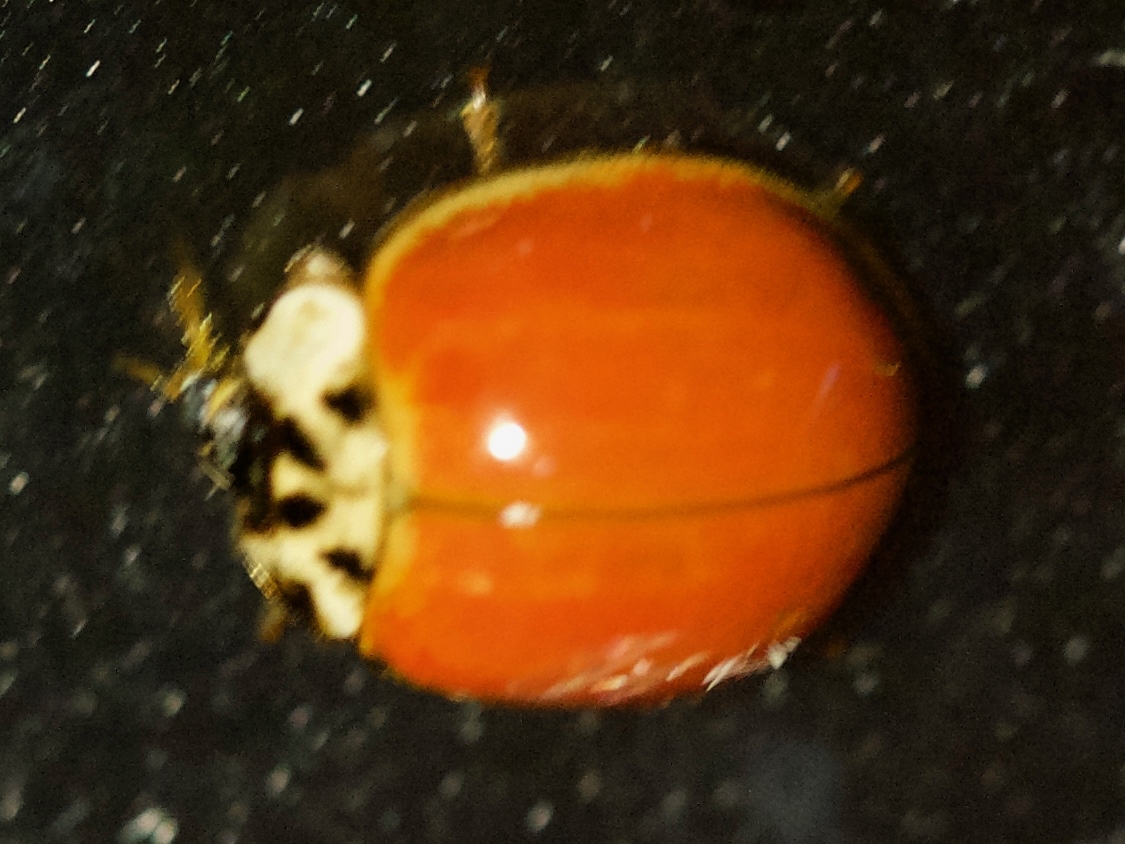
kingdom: Animalia
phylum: Arthropoda
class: Insecta
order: Coleoptera
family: Coccinellidae
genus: Harmonia
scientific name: Harmonia axyridis
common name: Harlequin ladybird
